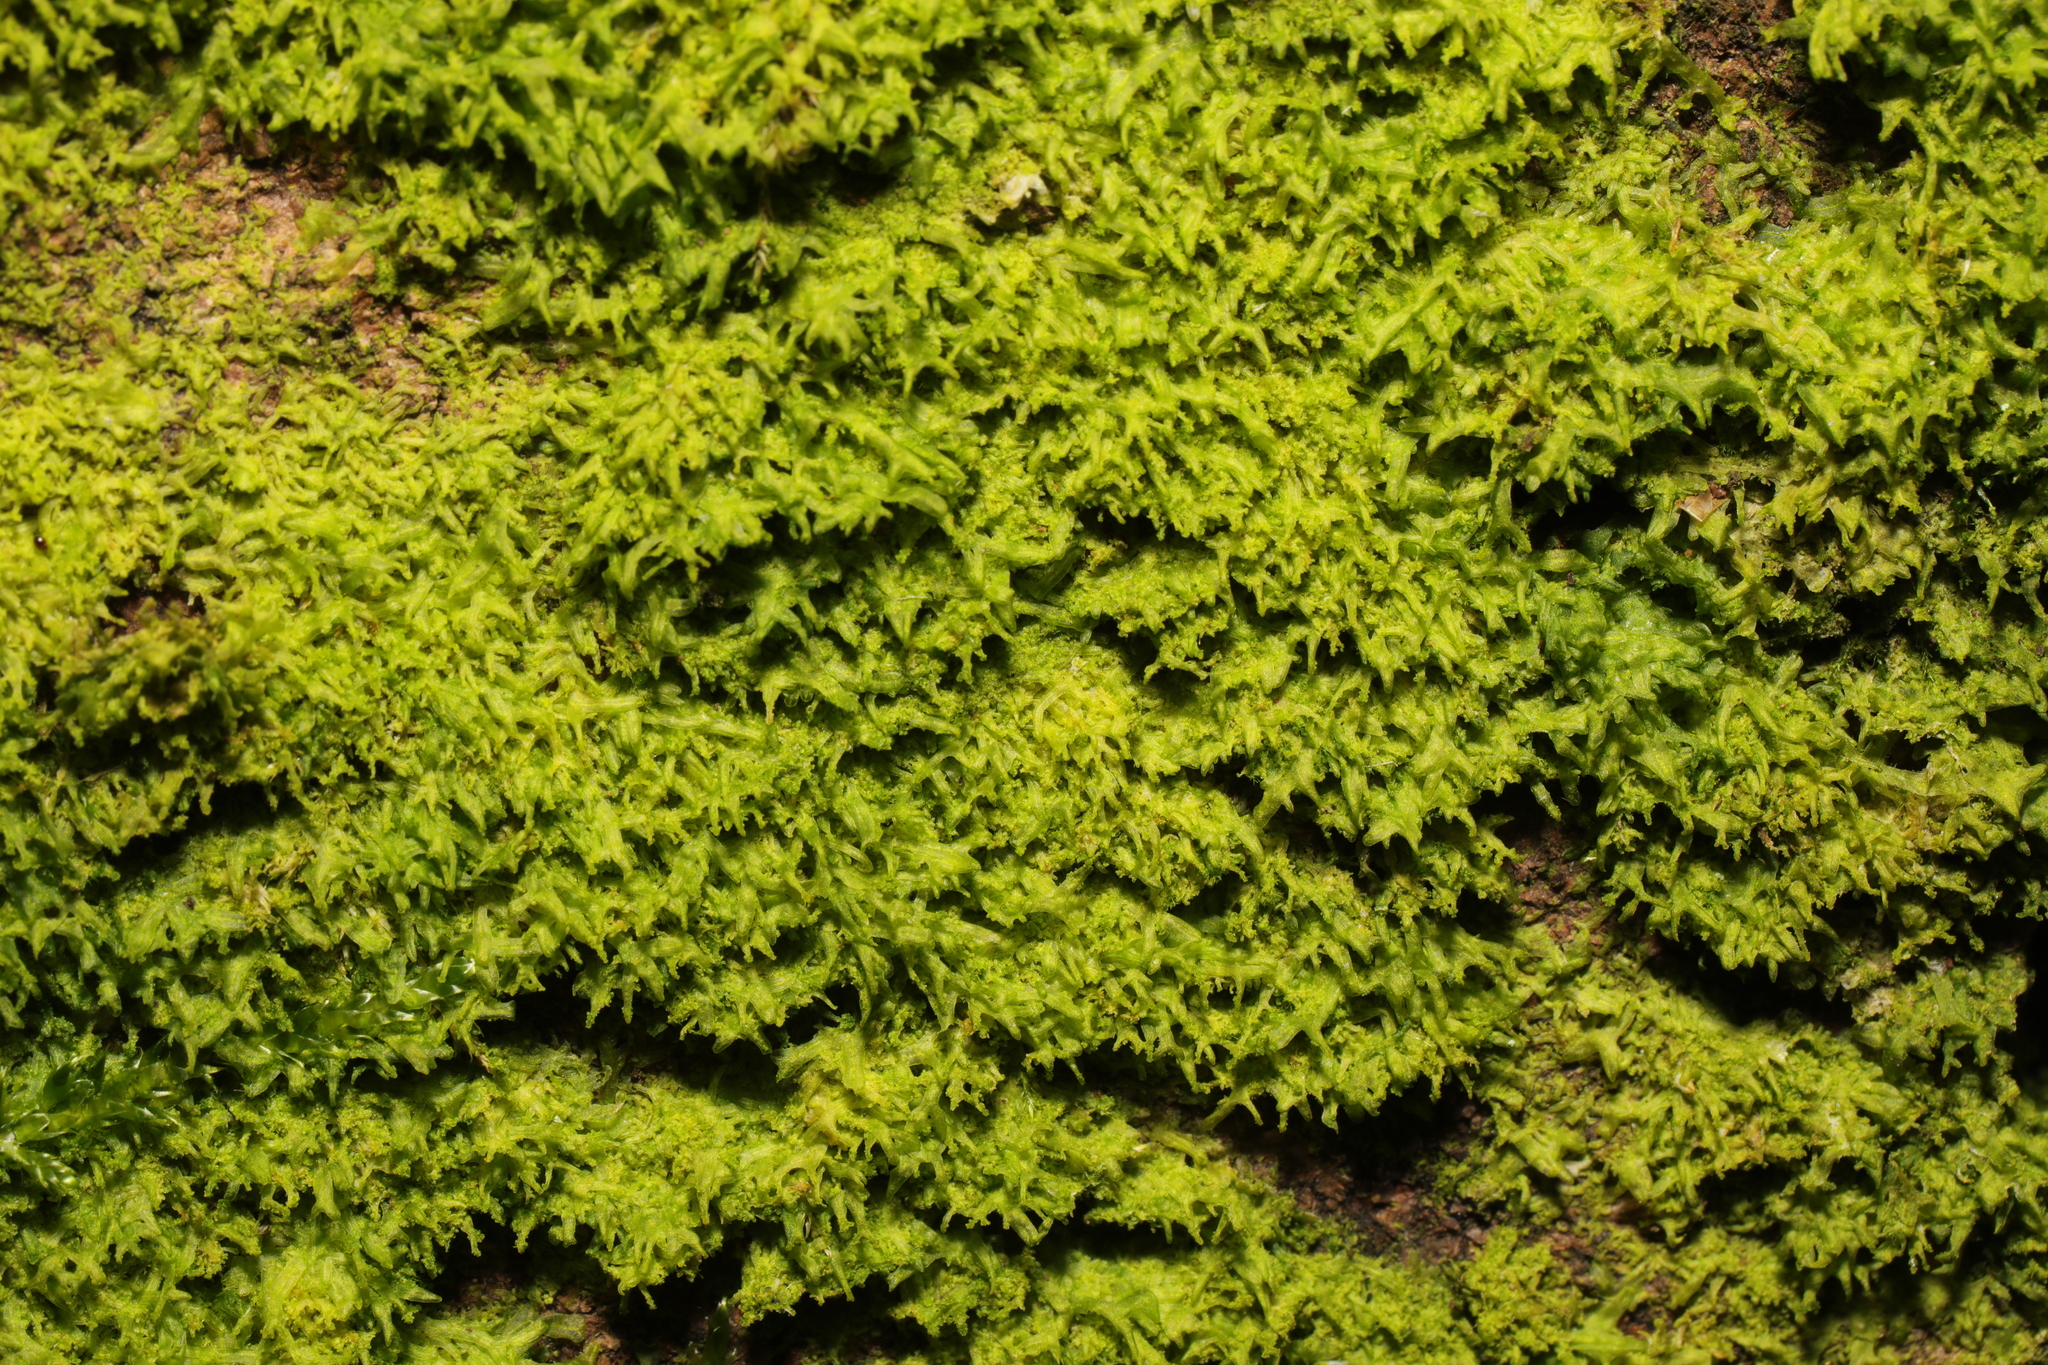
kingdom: Plantae
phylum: Marchantiophyta
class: Jungermanniopsida
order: Metzgeriales
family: Metzgeriaceae
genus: Metzgeria
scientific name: Metzgeria furcata
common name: Forked veilwort
